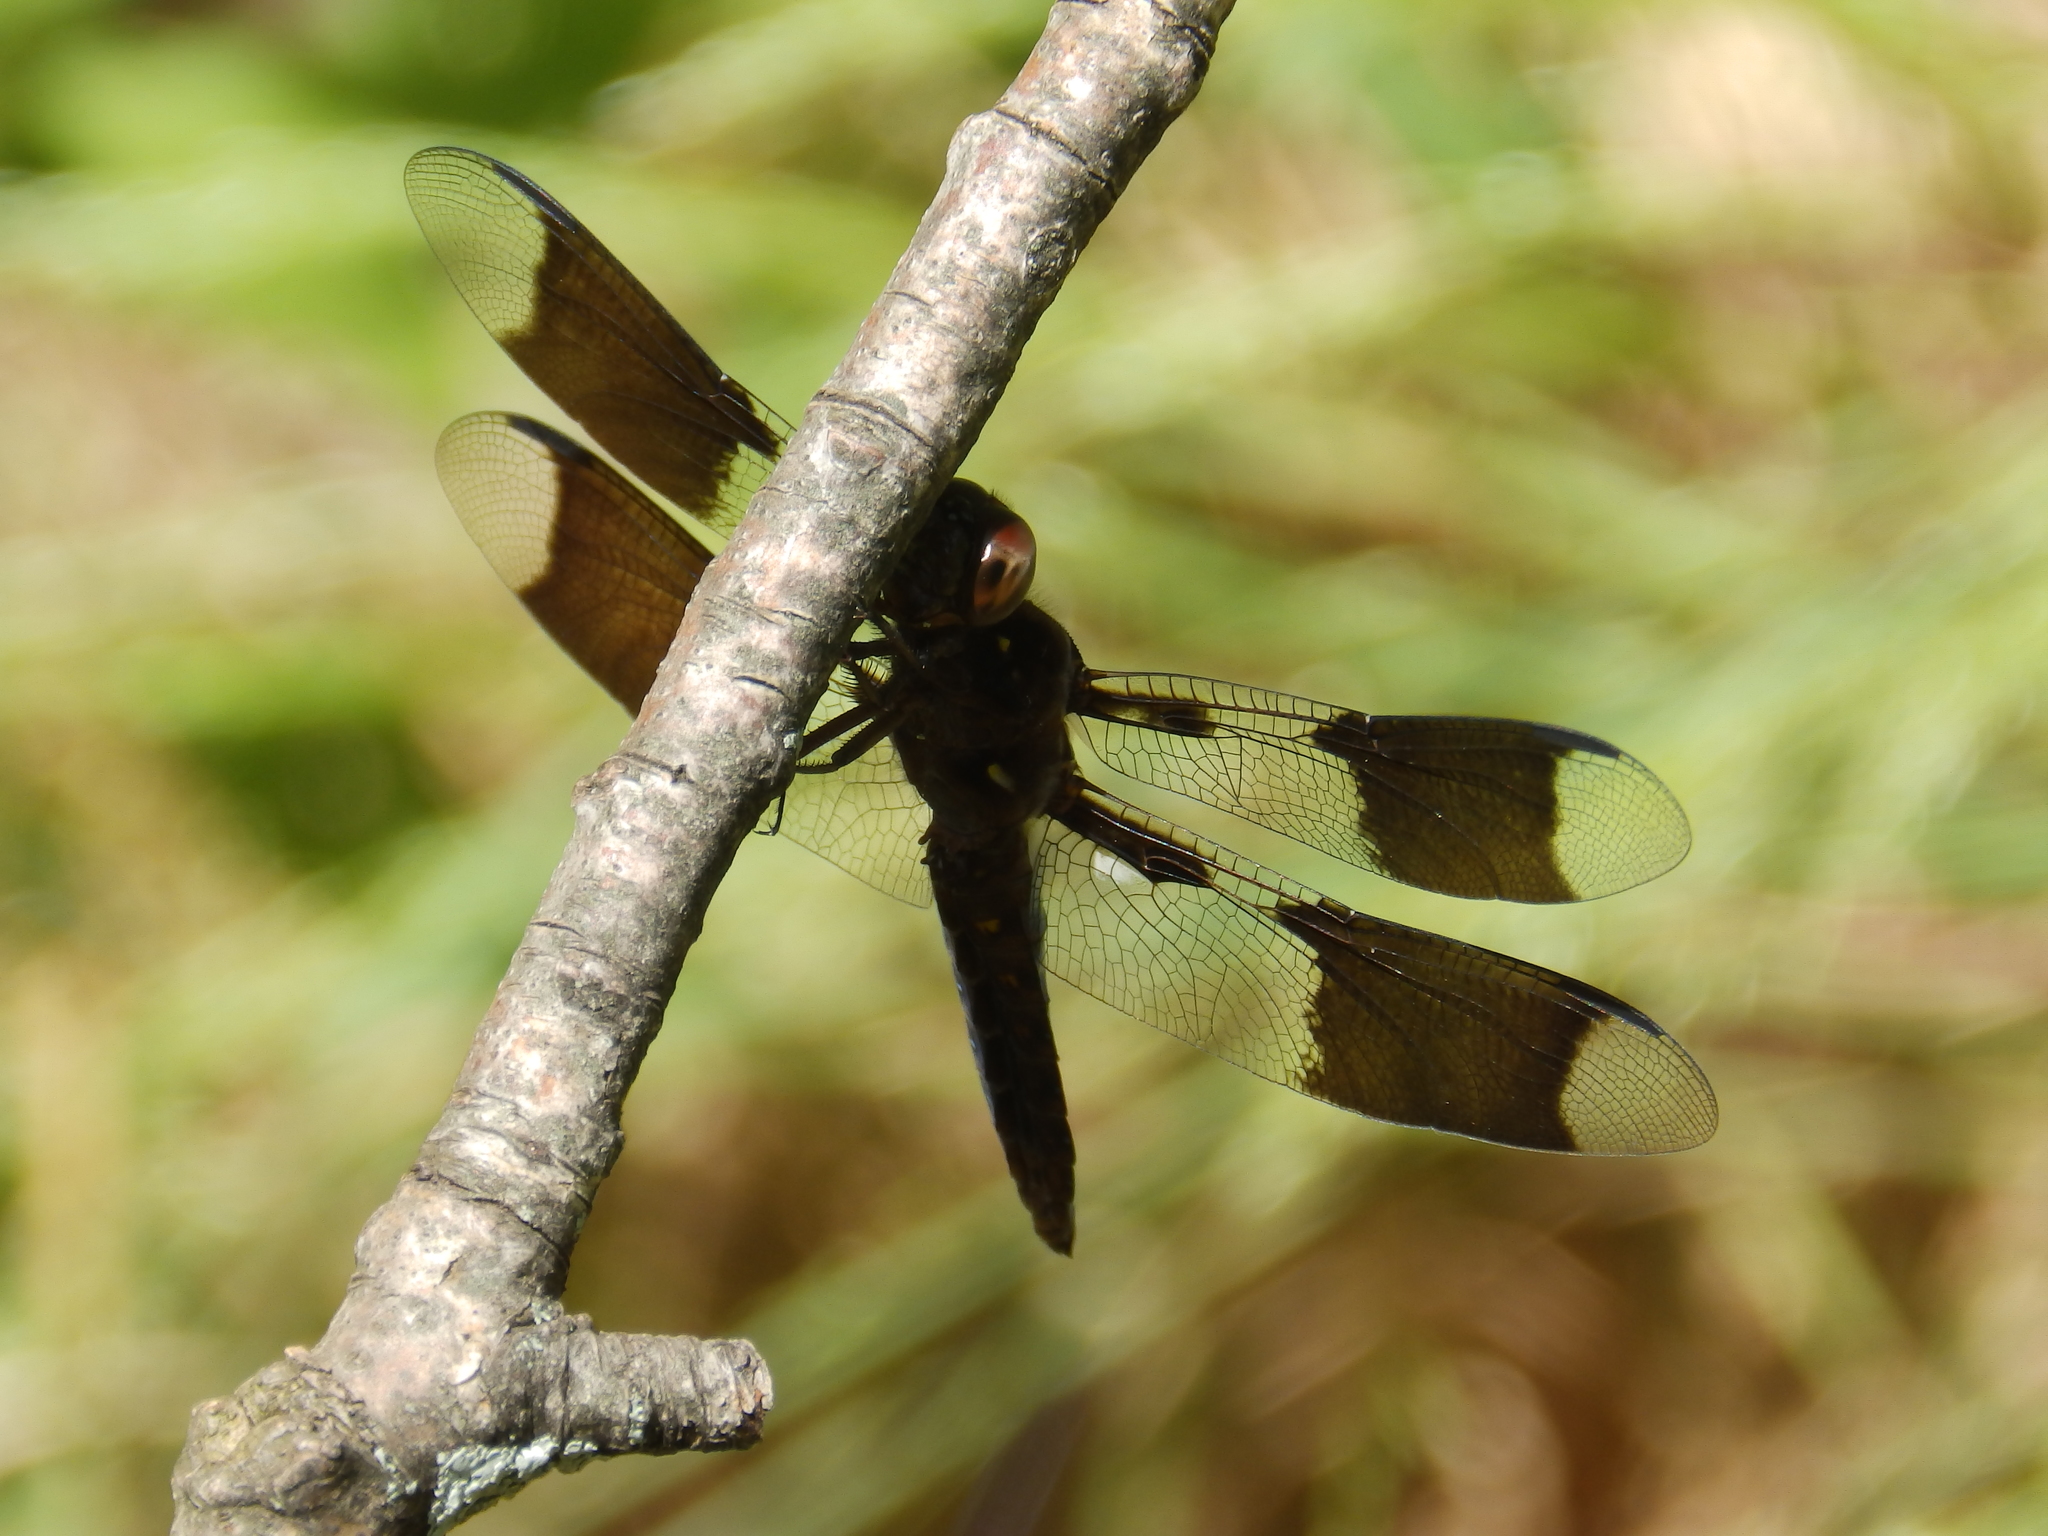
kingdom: Animalia
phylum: Arthropoda
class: Insecta
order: Odonata
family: Libellulidae
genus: Plathemis
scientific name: Plathemis lydia
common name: Common whitetail
